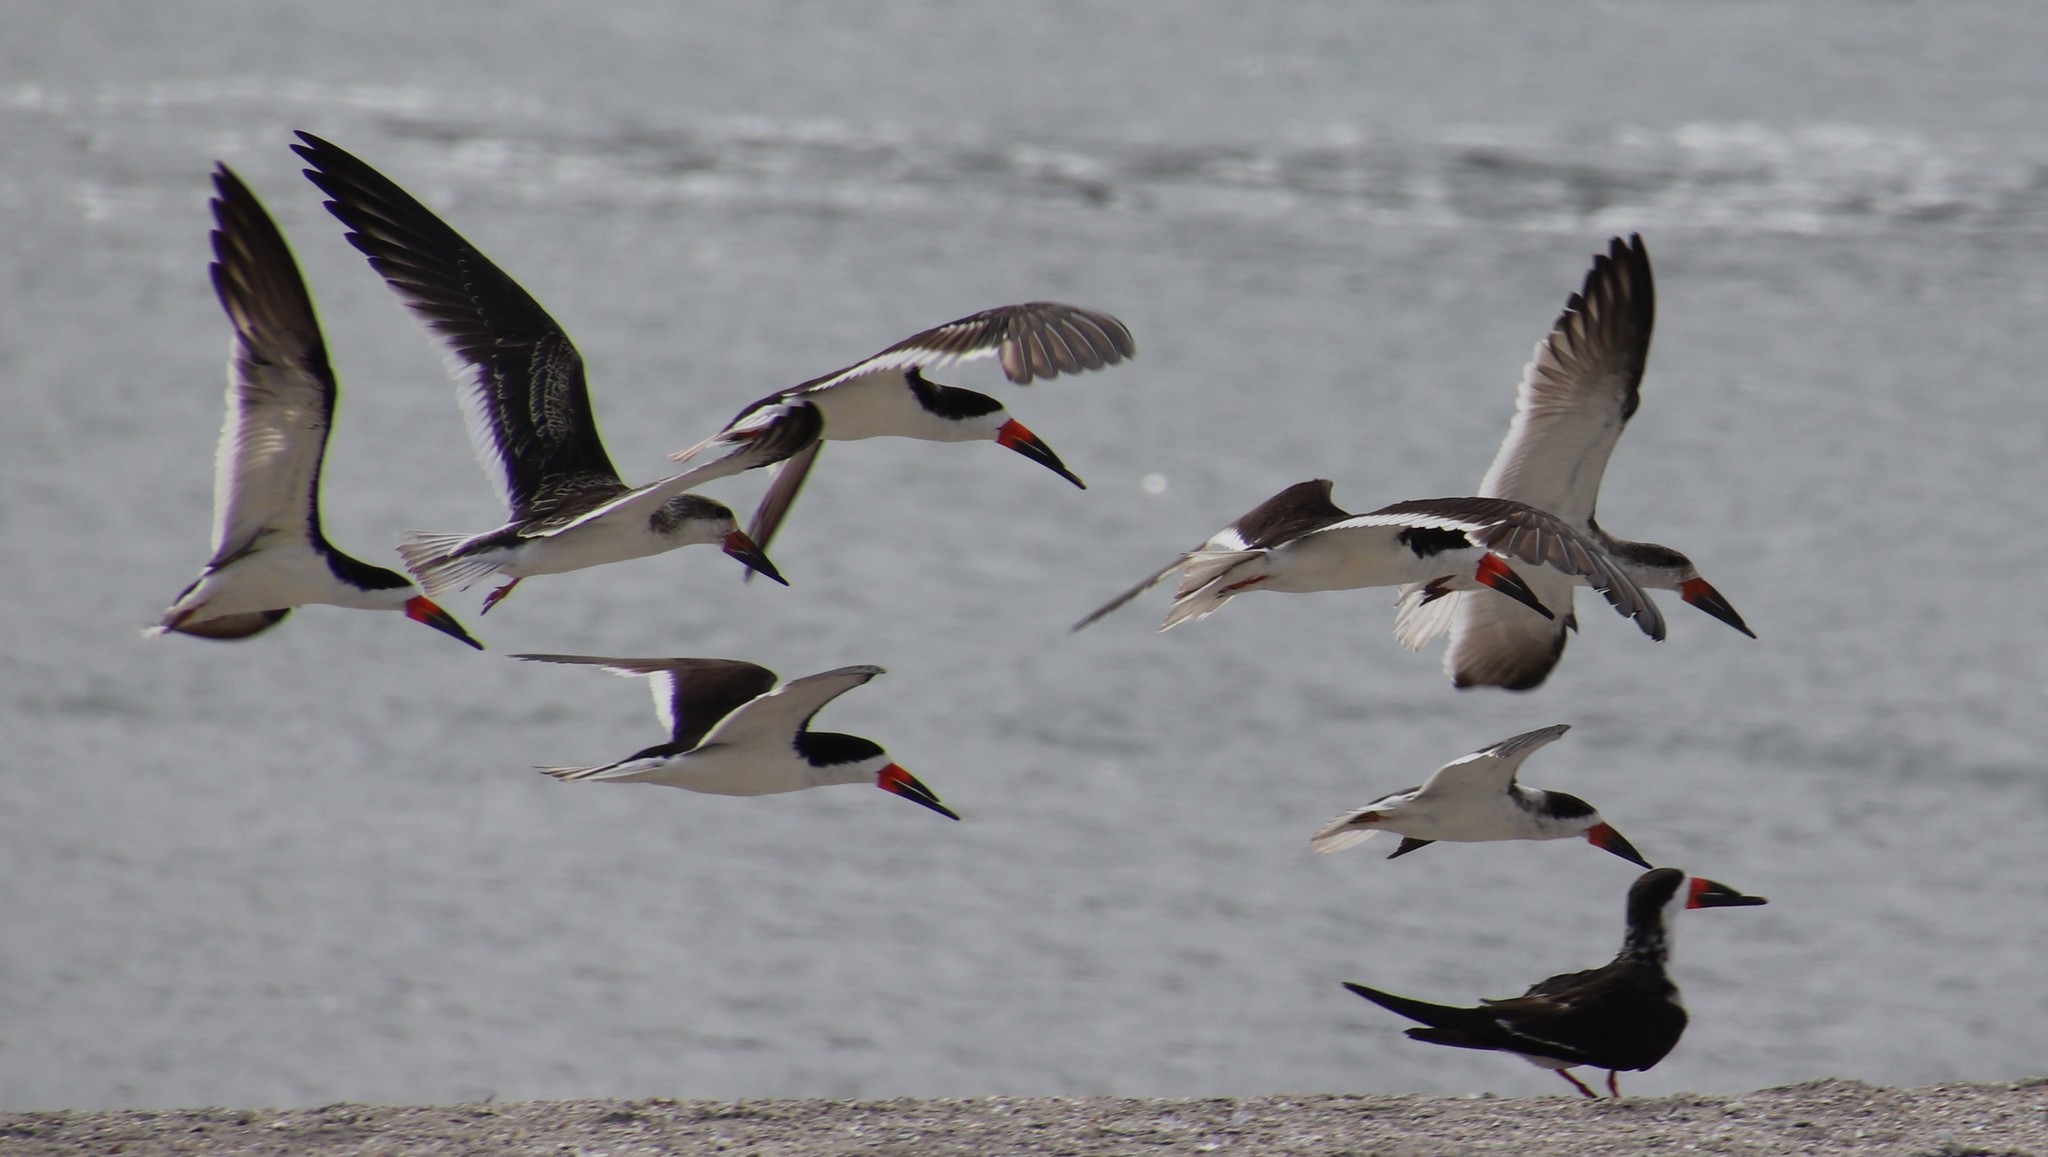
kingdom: Animalia
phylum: Chordata
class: Aves
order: Charadriiformes
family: Laridae
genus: Rynchops
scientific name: Rynchops niger
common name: Black skimmer
